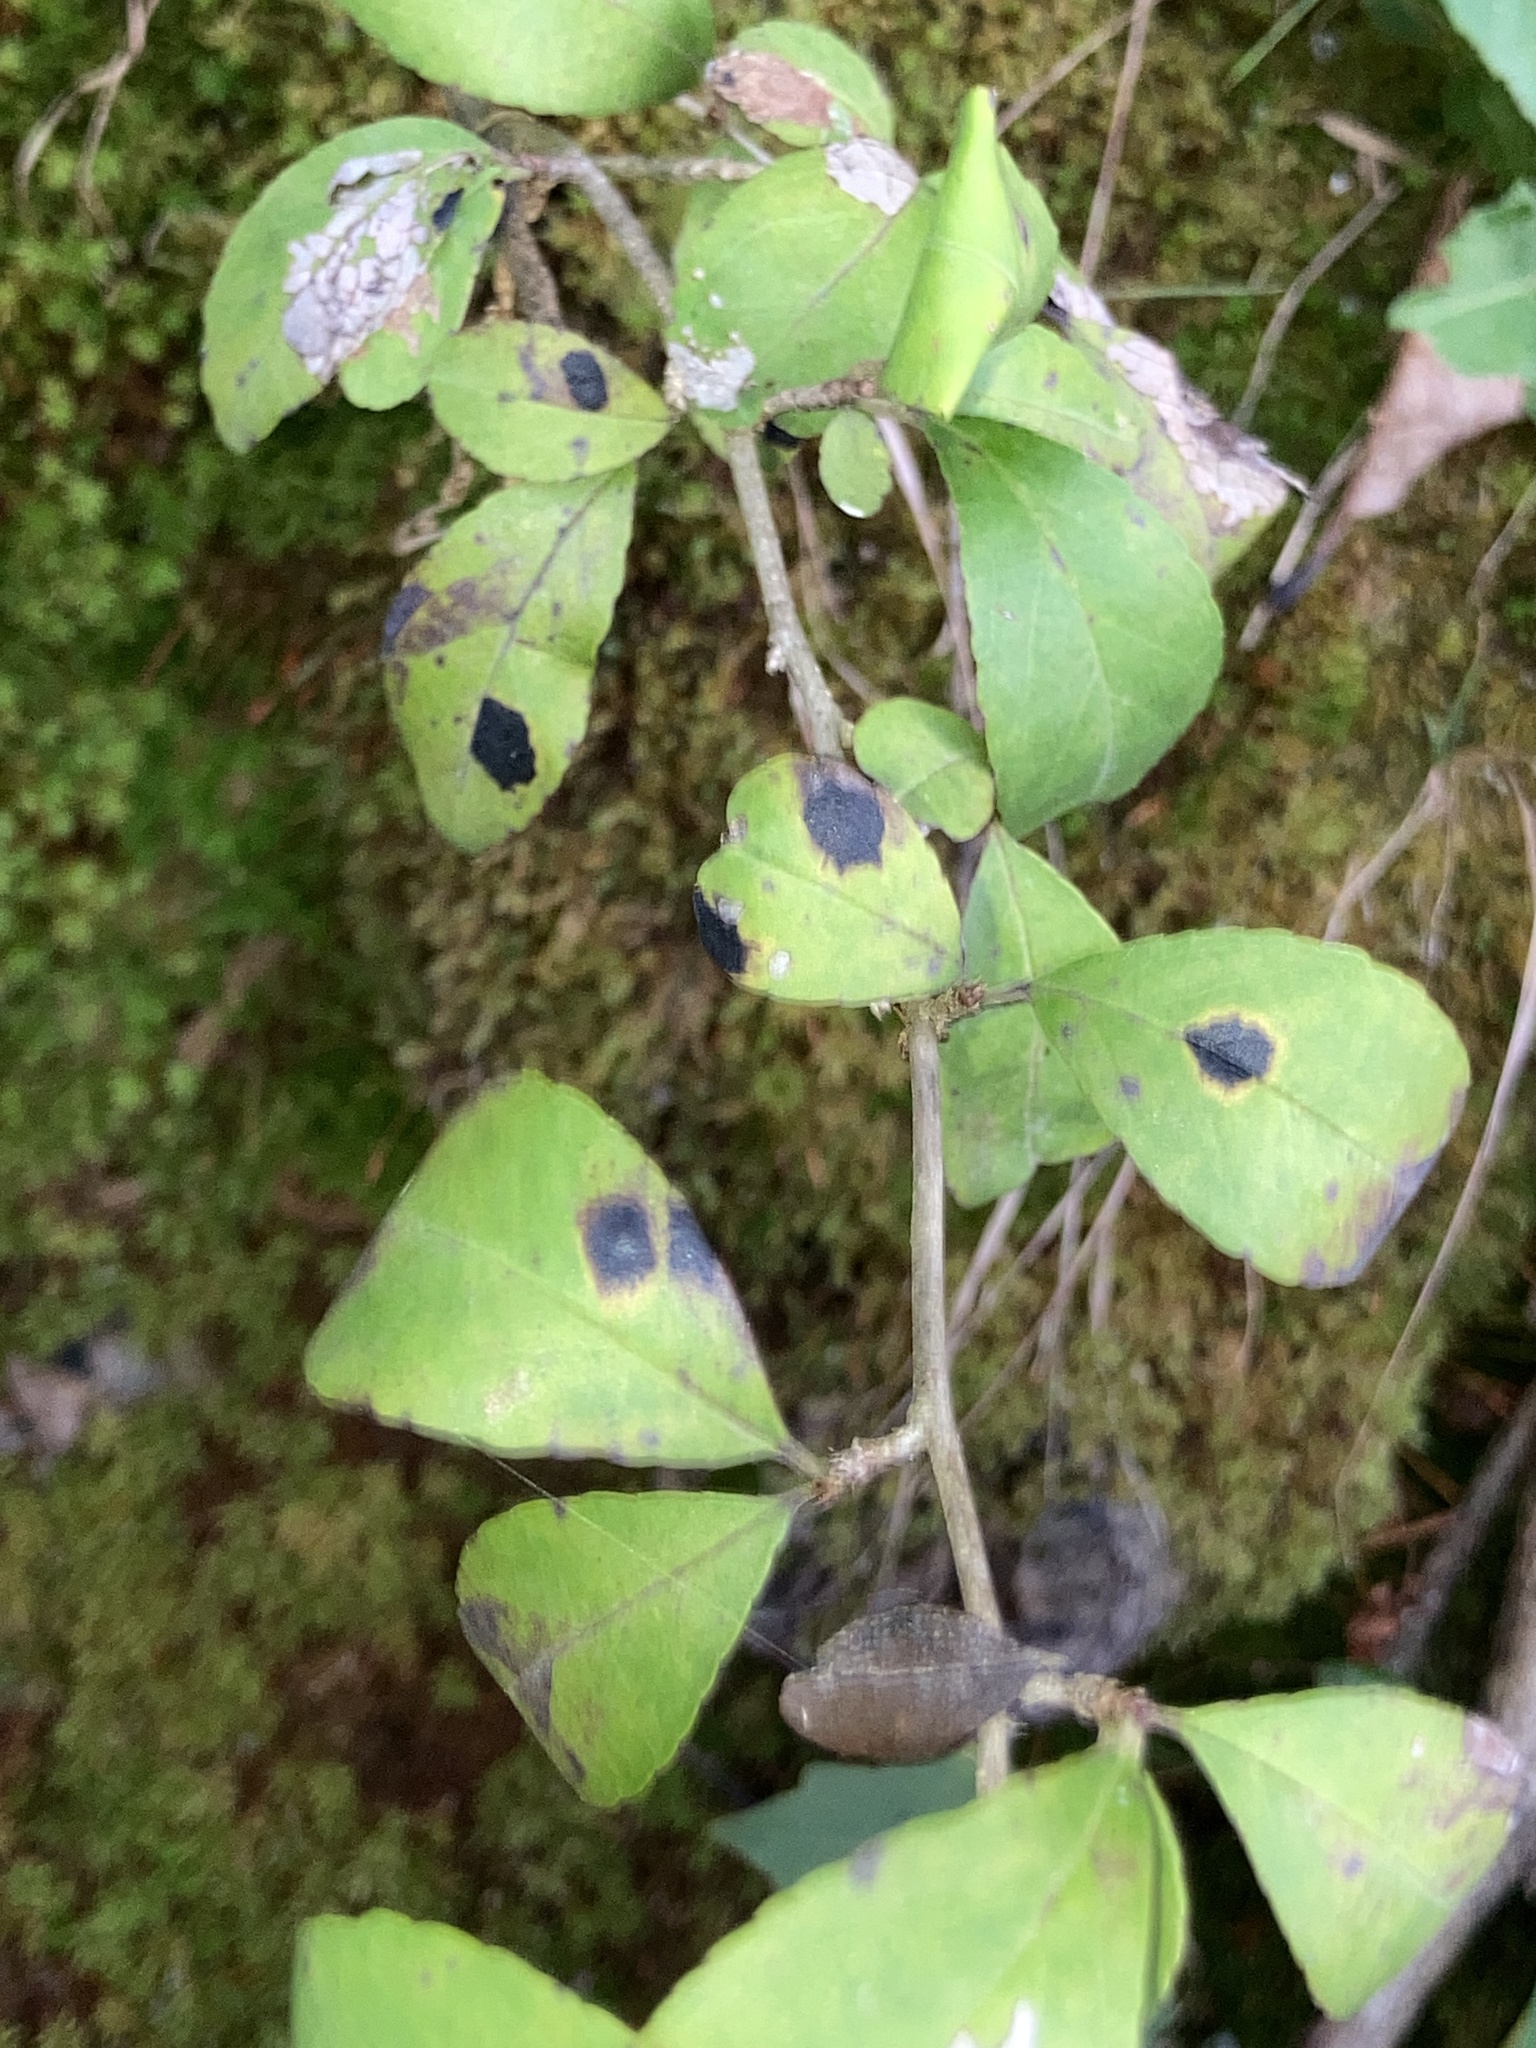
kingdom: Plantae
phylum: Tracheophyta
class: Magnoliopsida
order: Aquifoliales
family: Aquifoliaceae
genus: Ilex
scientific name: Ilex decidua
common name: Possum-haw
